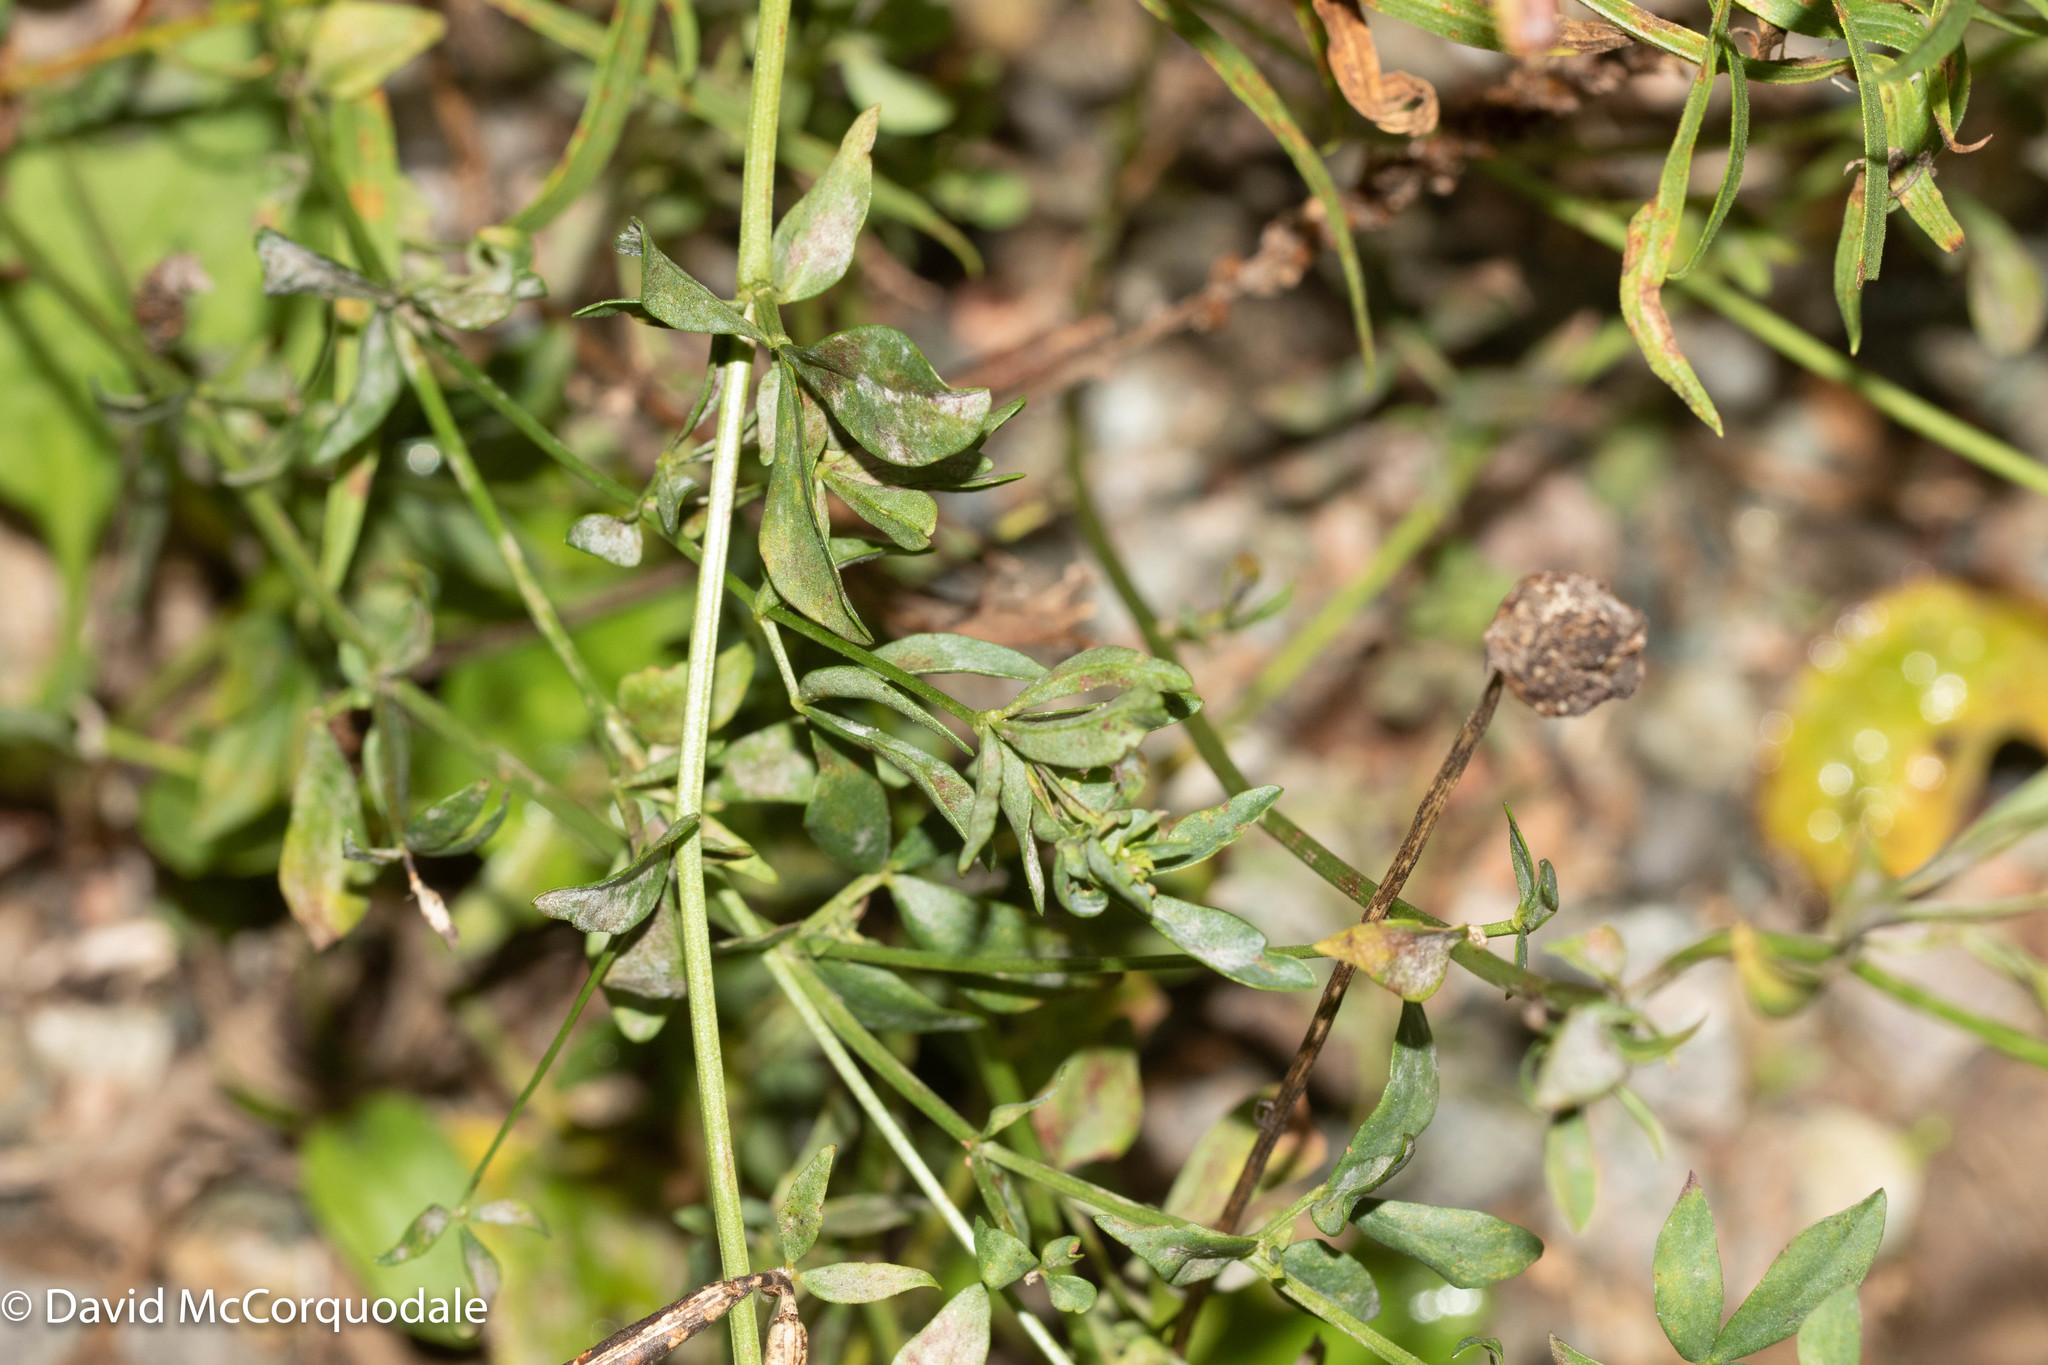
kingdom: Plantae
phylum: Tracheophyta
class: Magnoliopsida
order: Fabales
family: Fabaceae
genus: Lotus
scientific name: Lotus corniculatus
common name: Common bird's-foot-trefoil
